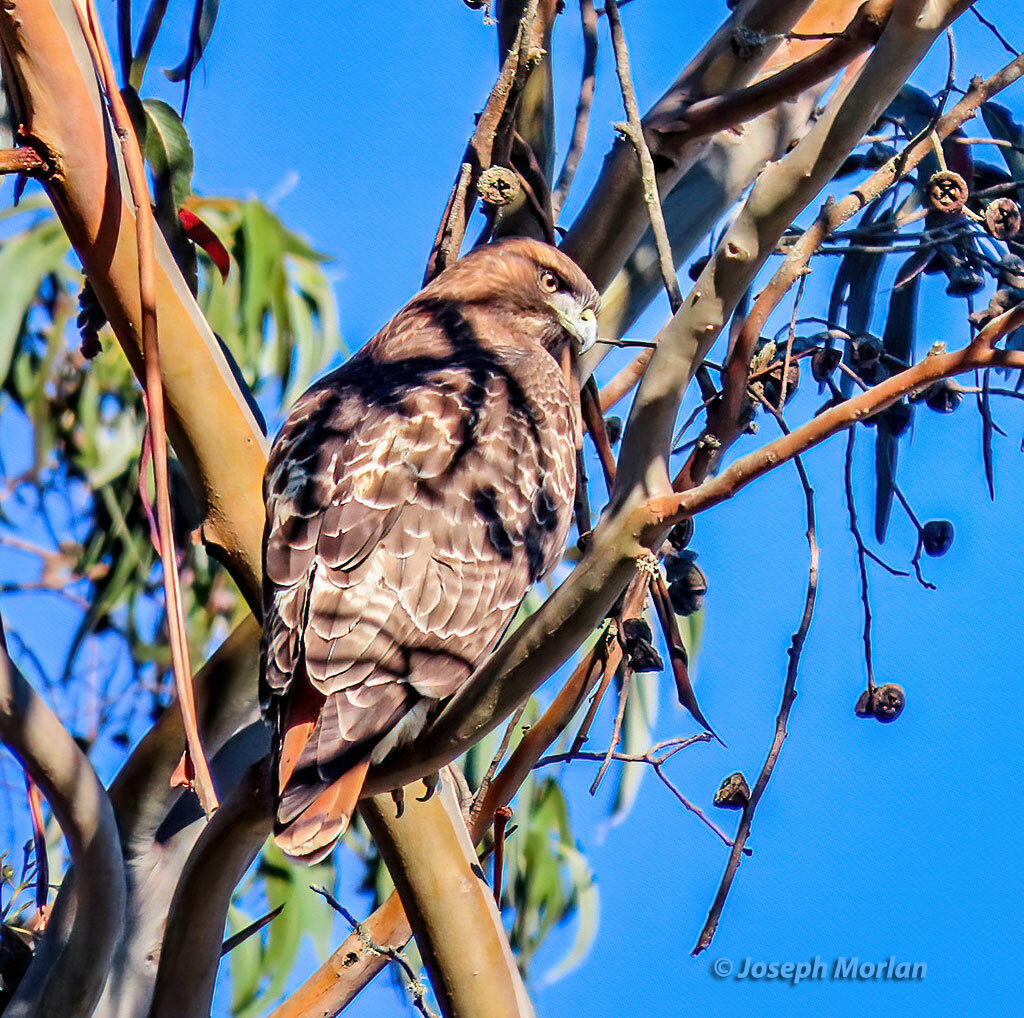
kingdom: Animalia
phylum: Chordata
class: Aves
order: Accipitriformes
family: Accipitridae
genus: Buteo
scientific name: Buteo jamaicensis
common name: Red-tailed hawk
